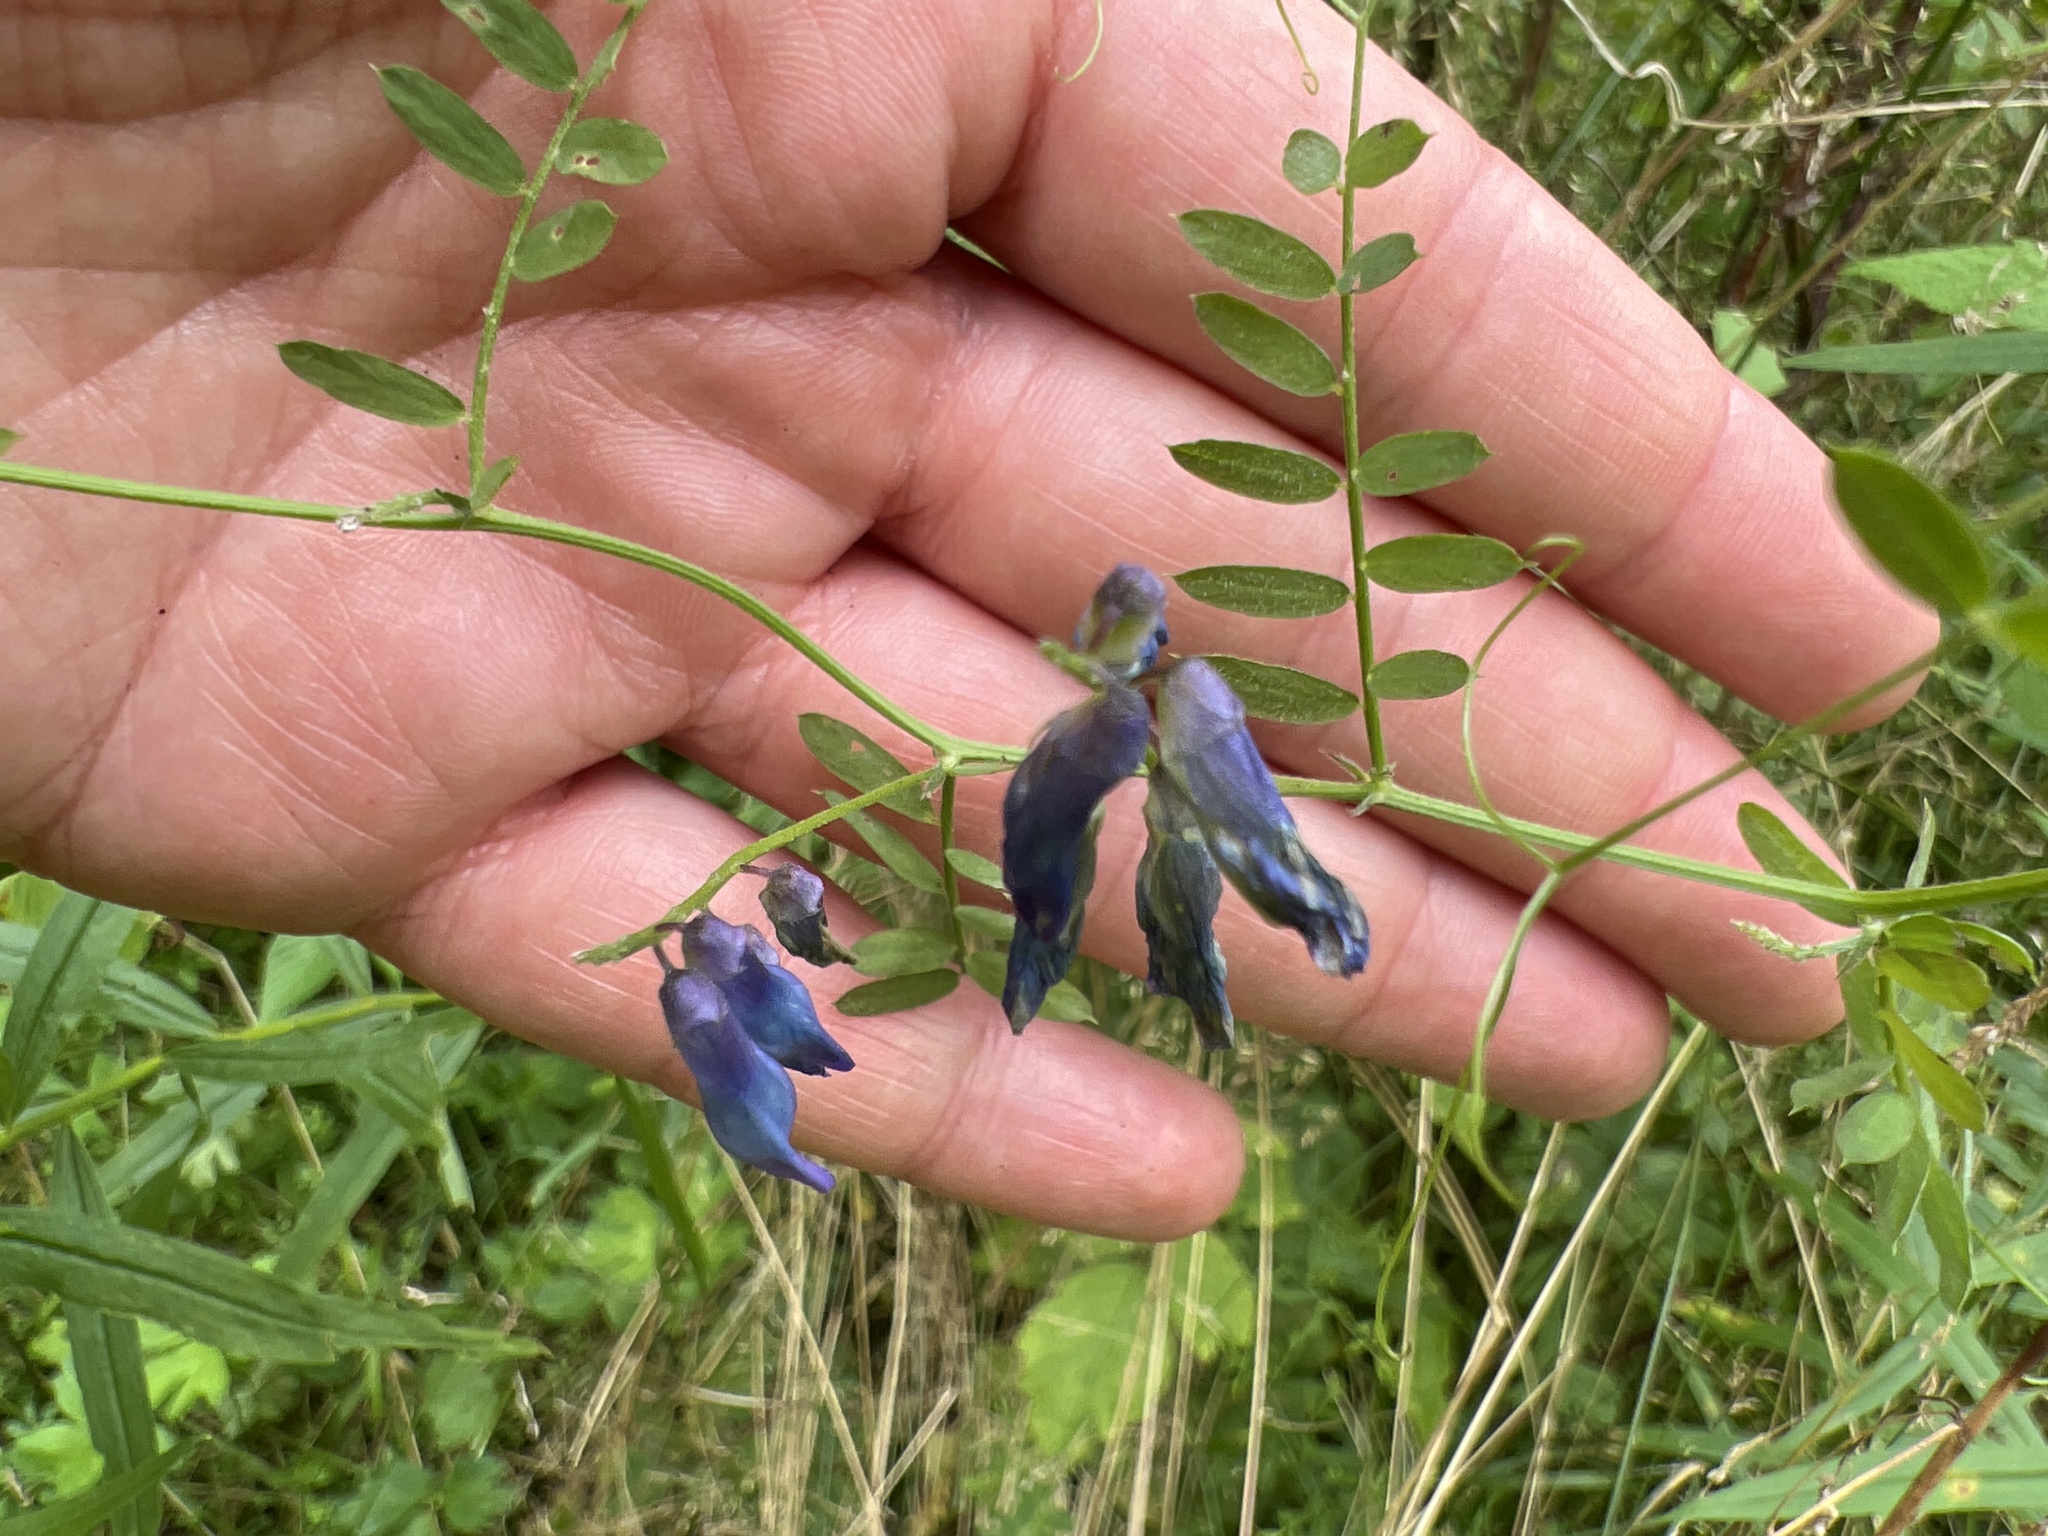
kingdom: Plantae
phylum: Tracheophyta
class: Magnoliopsida
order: Fabales
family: Fabaceae
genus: Vicia
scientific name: Vicia cracca
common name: Bird vetch
